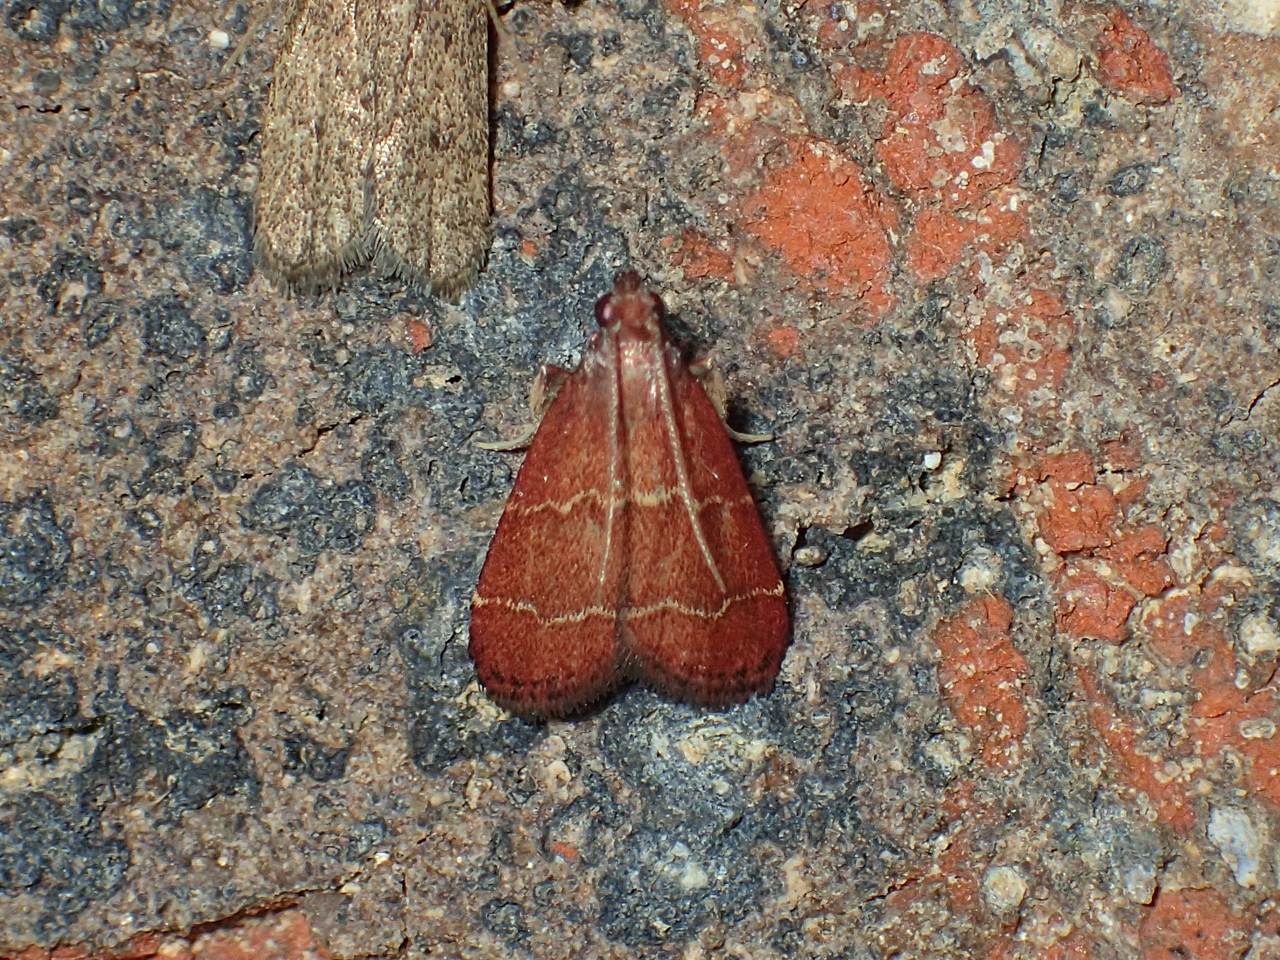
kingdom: Animalia
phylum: Arthropoda
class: Insecta
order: Lepidoptera
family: Pyralidae
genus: Arta
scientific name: Arta
